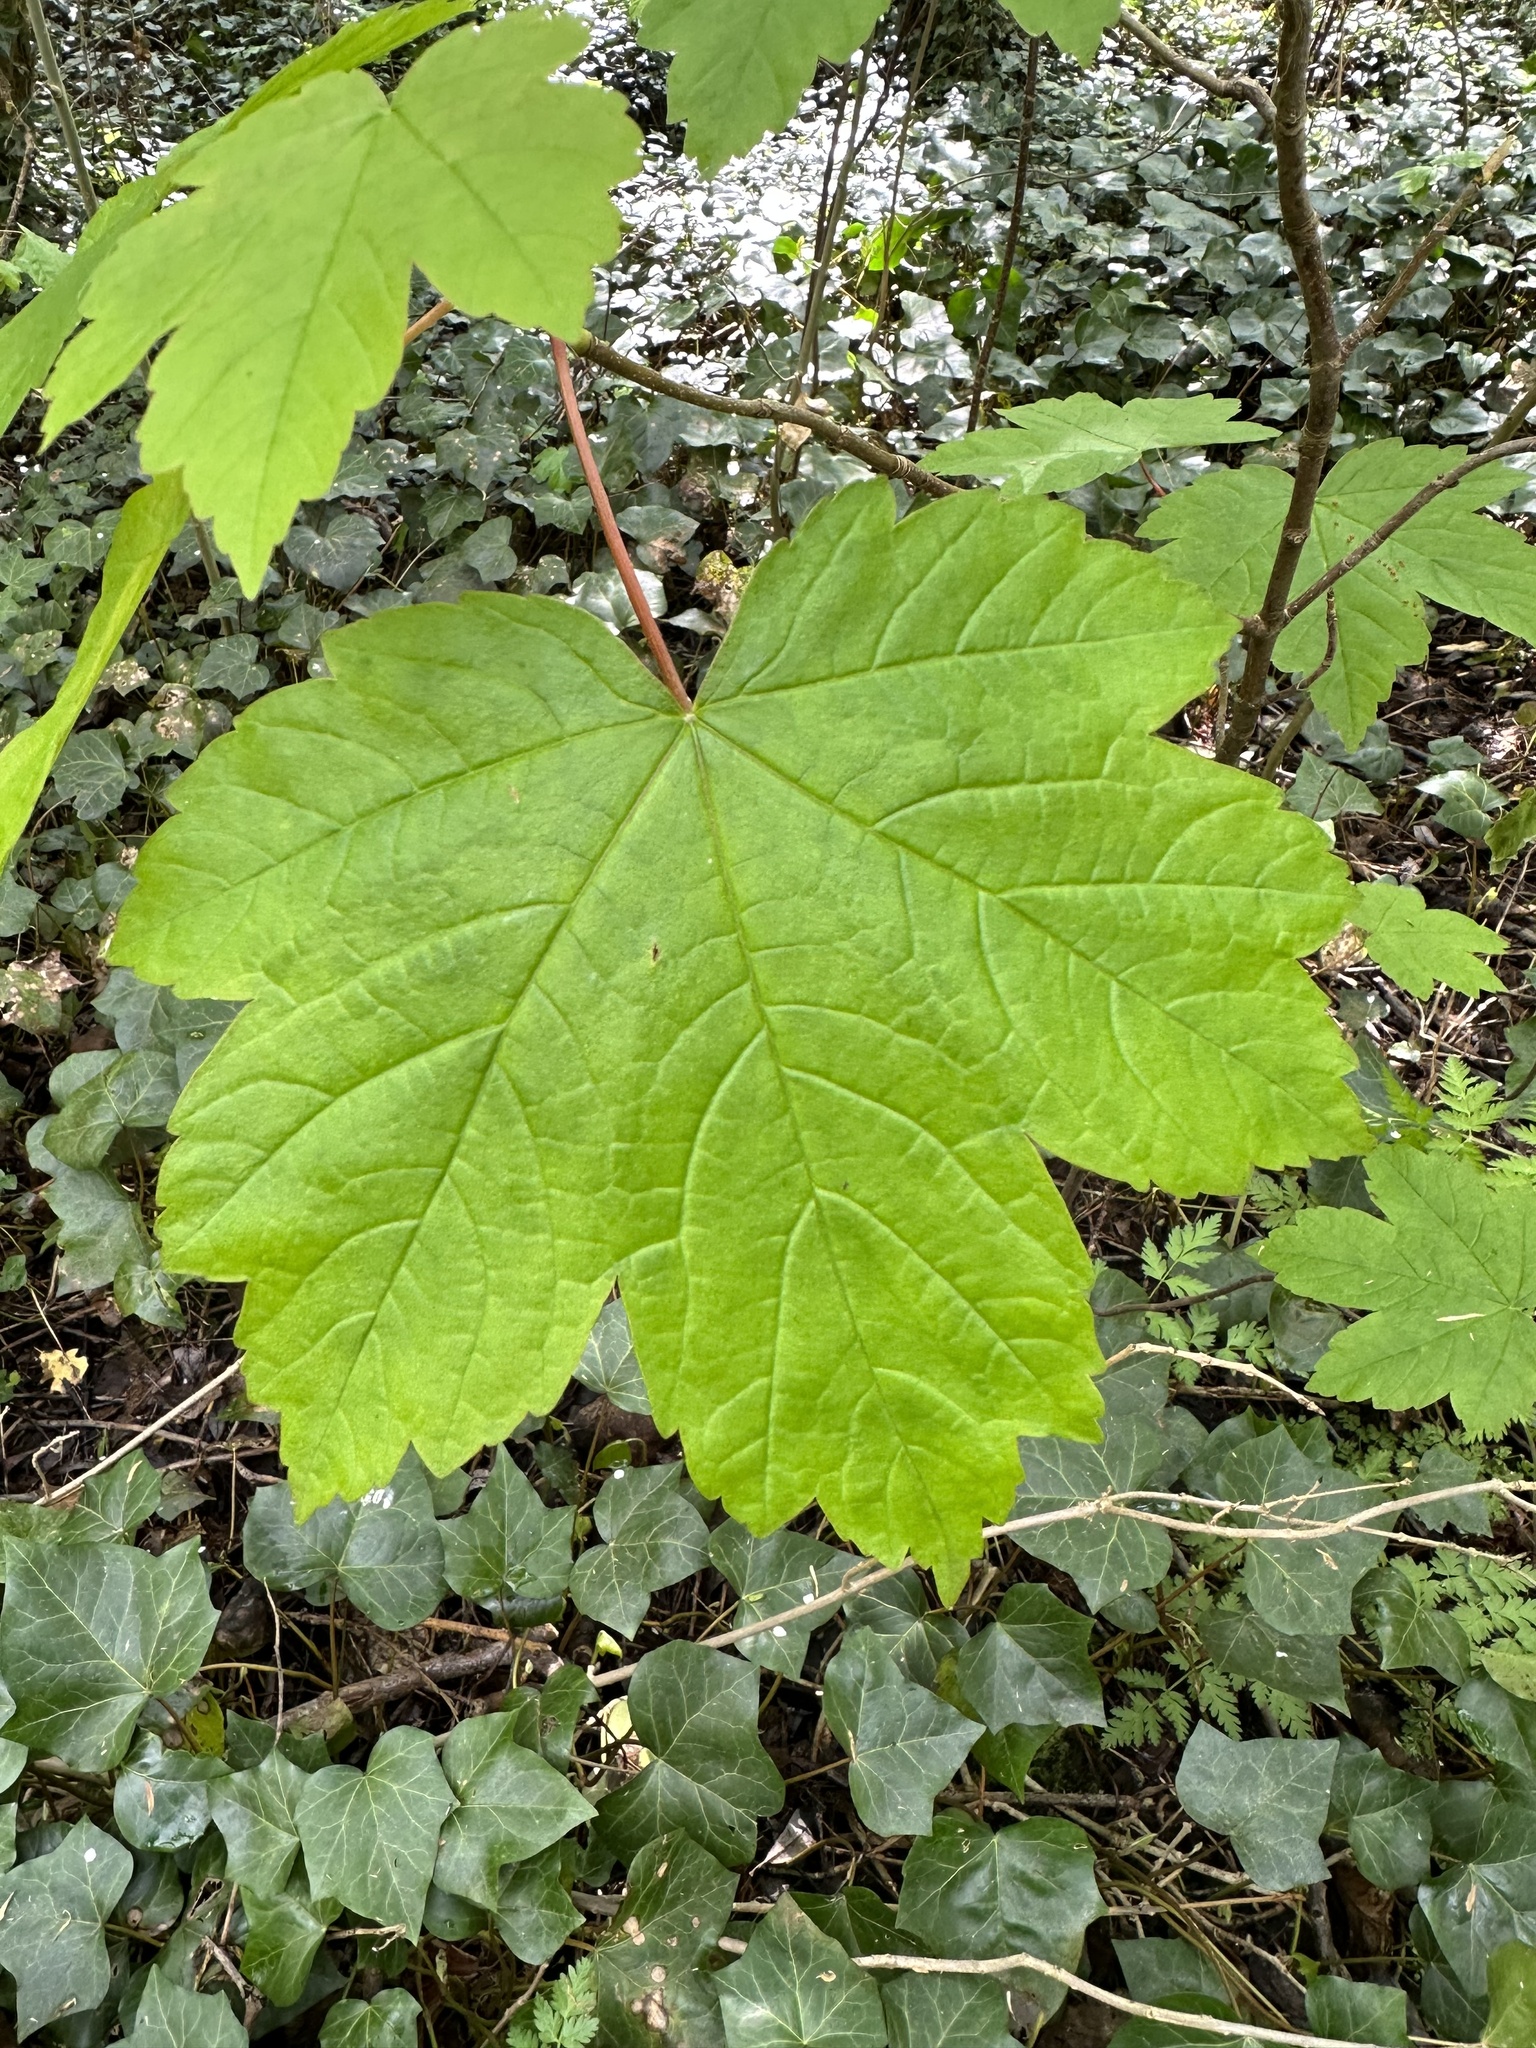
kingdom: Plantae
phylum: Tracheophyta
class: Magnoliopsida
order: Sapindales
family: Sapindaceae
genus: Acer
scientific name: Acer pseudoplatanus
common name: Sycamore
